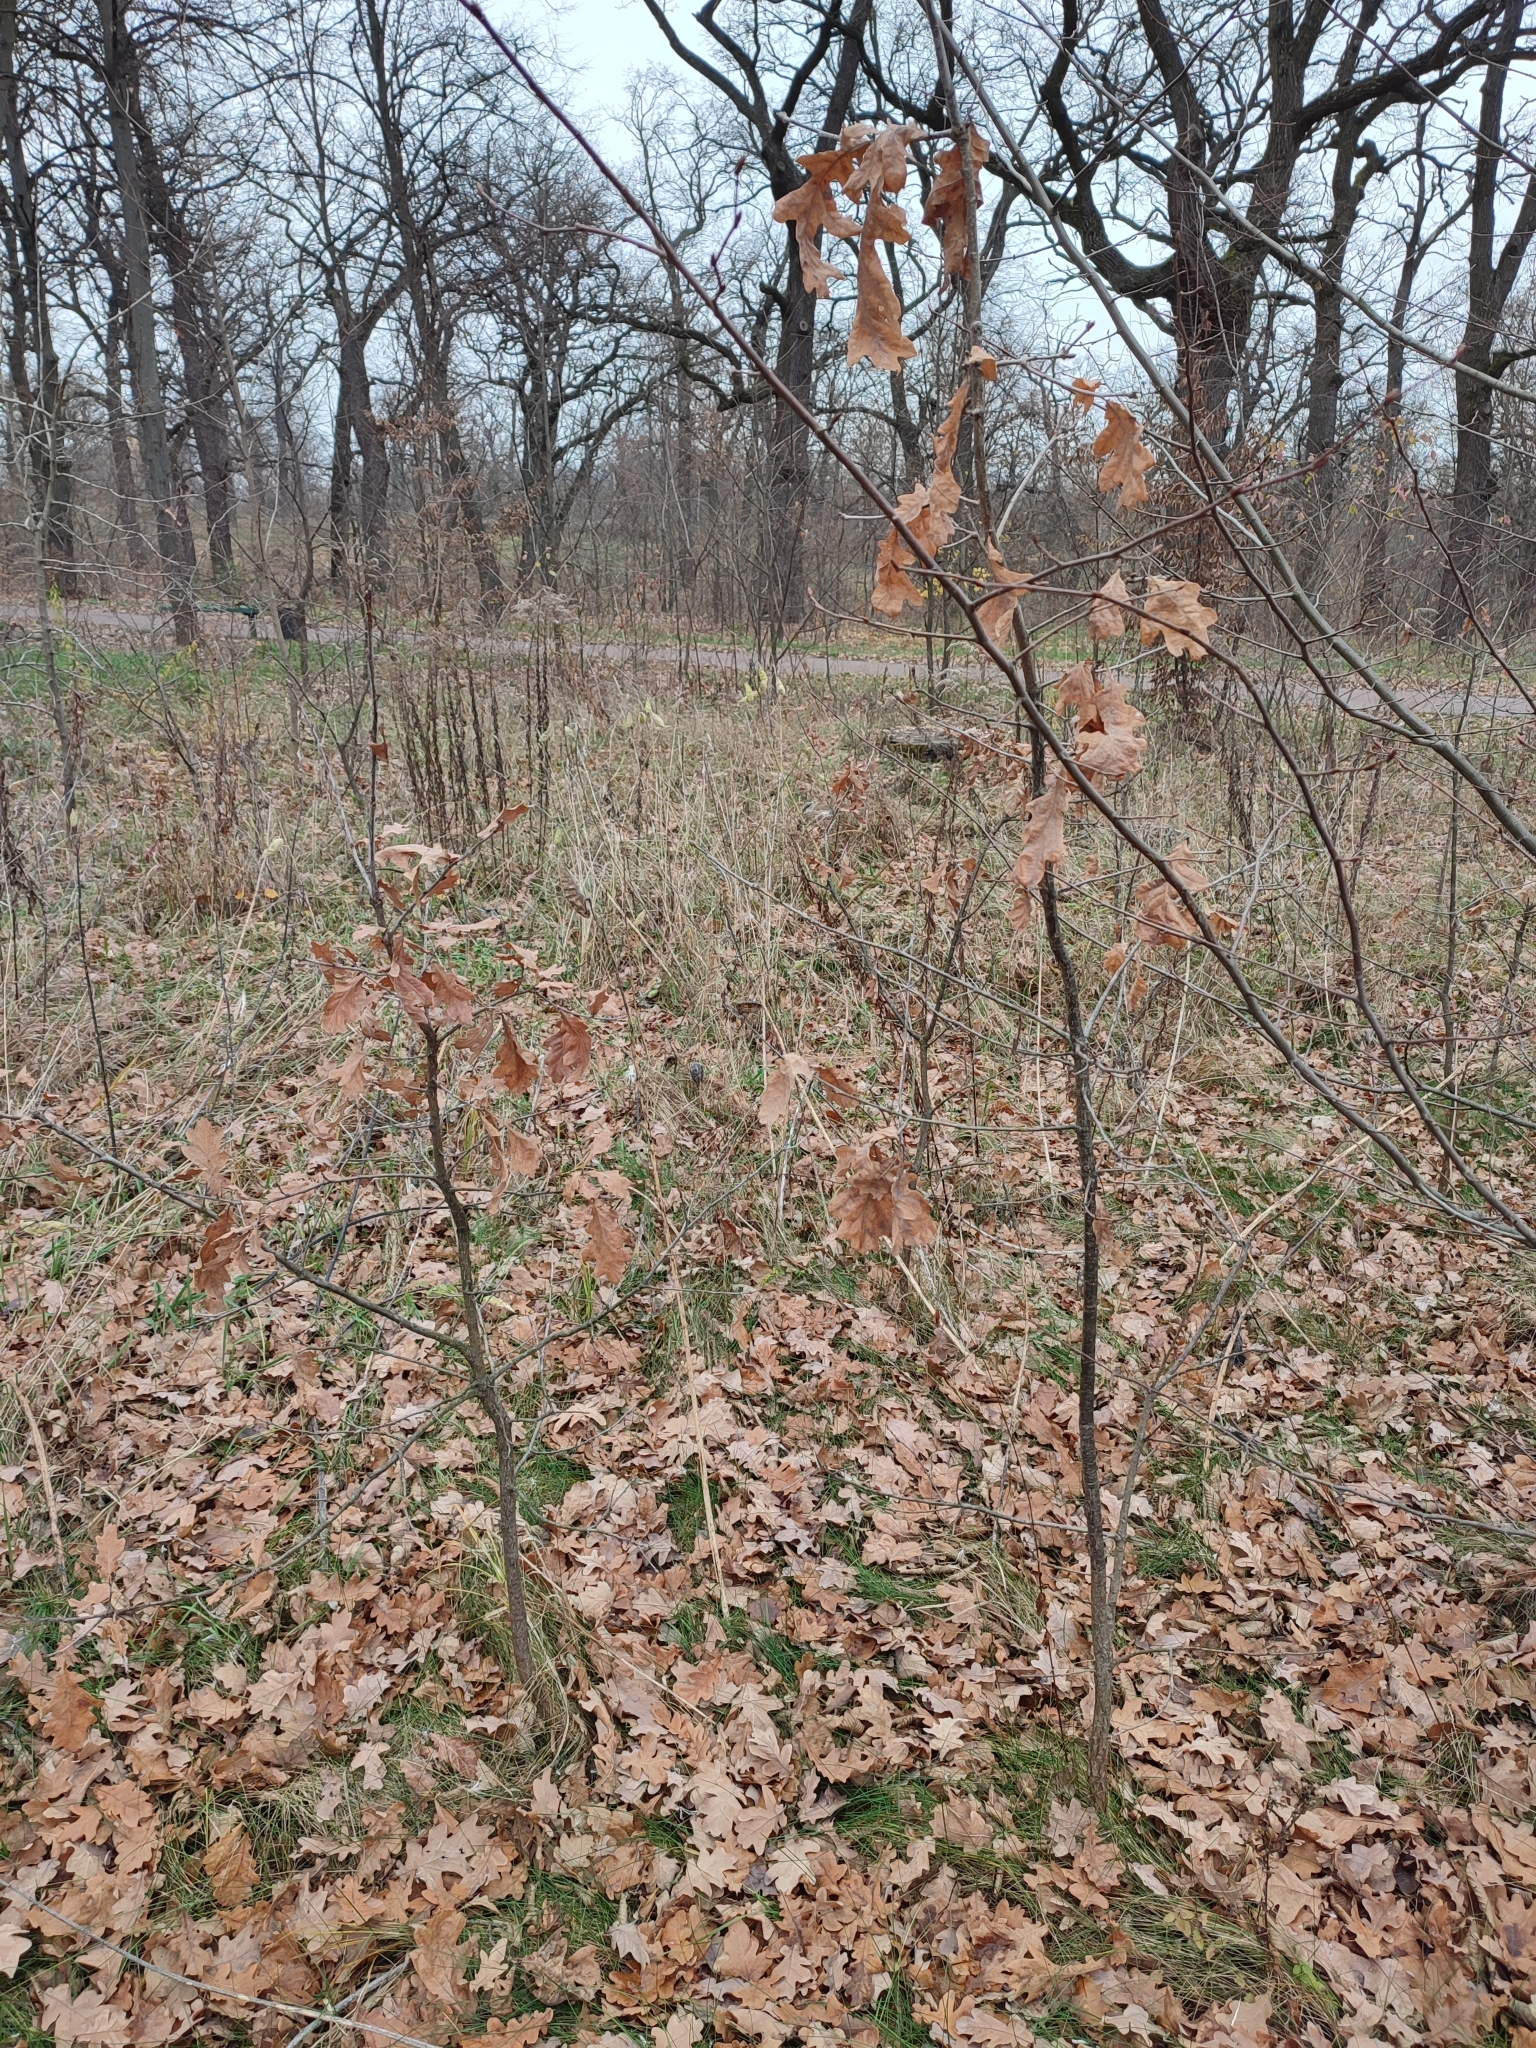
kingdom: Plantae
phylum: Tracheophyta
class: Magnoliopsida
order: Fagales
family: Fagaceae
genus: Quercus
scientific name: Quercus robur
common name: Pedunculate oak
